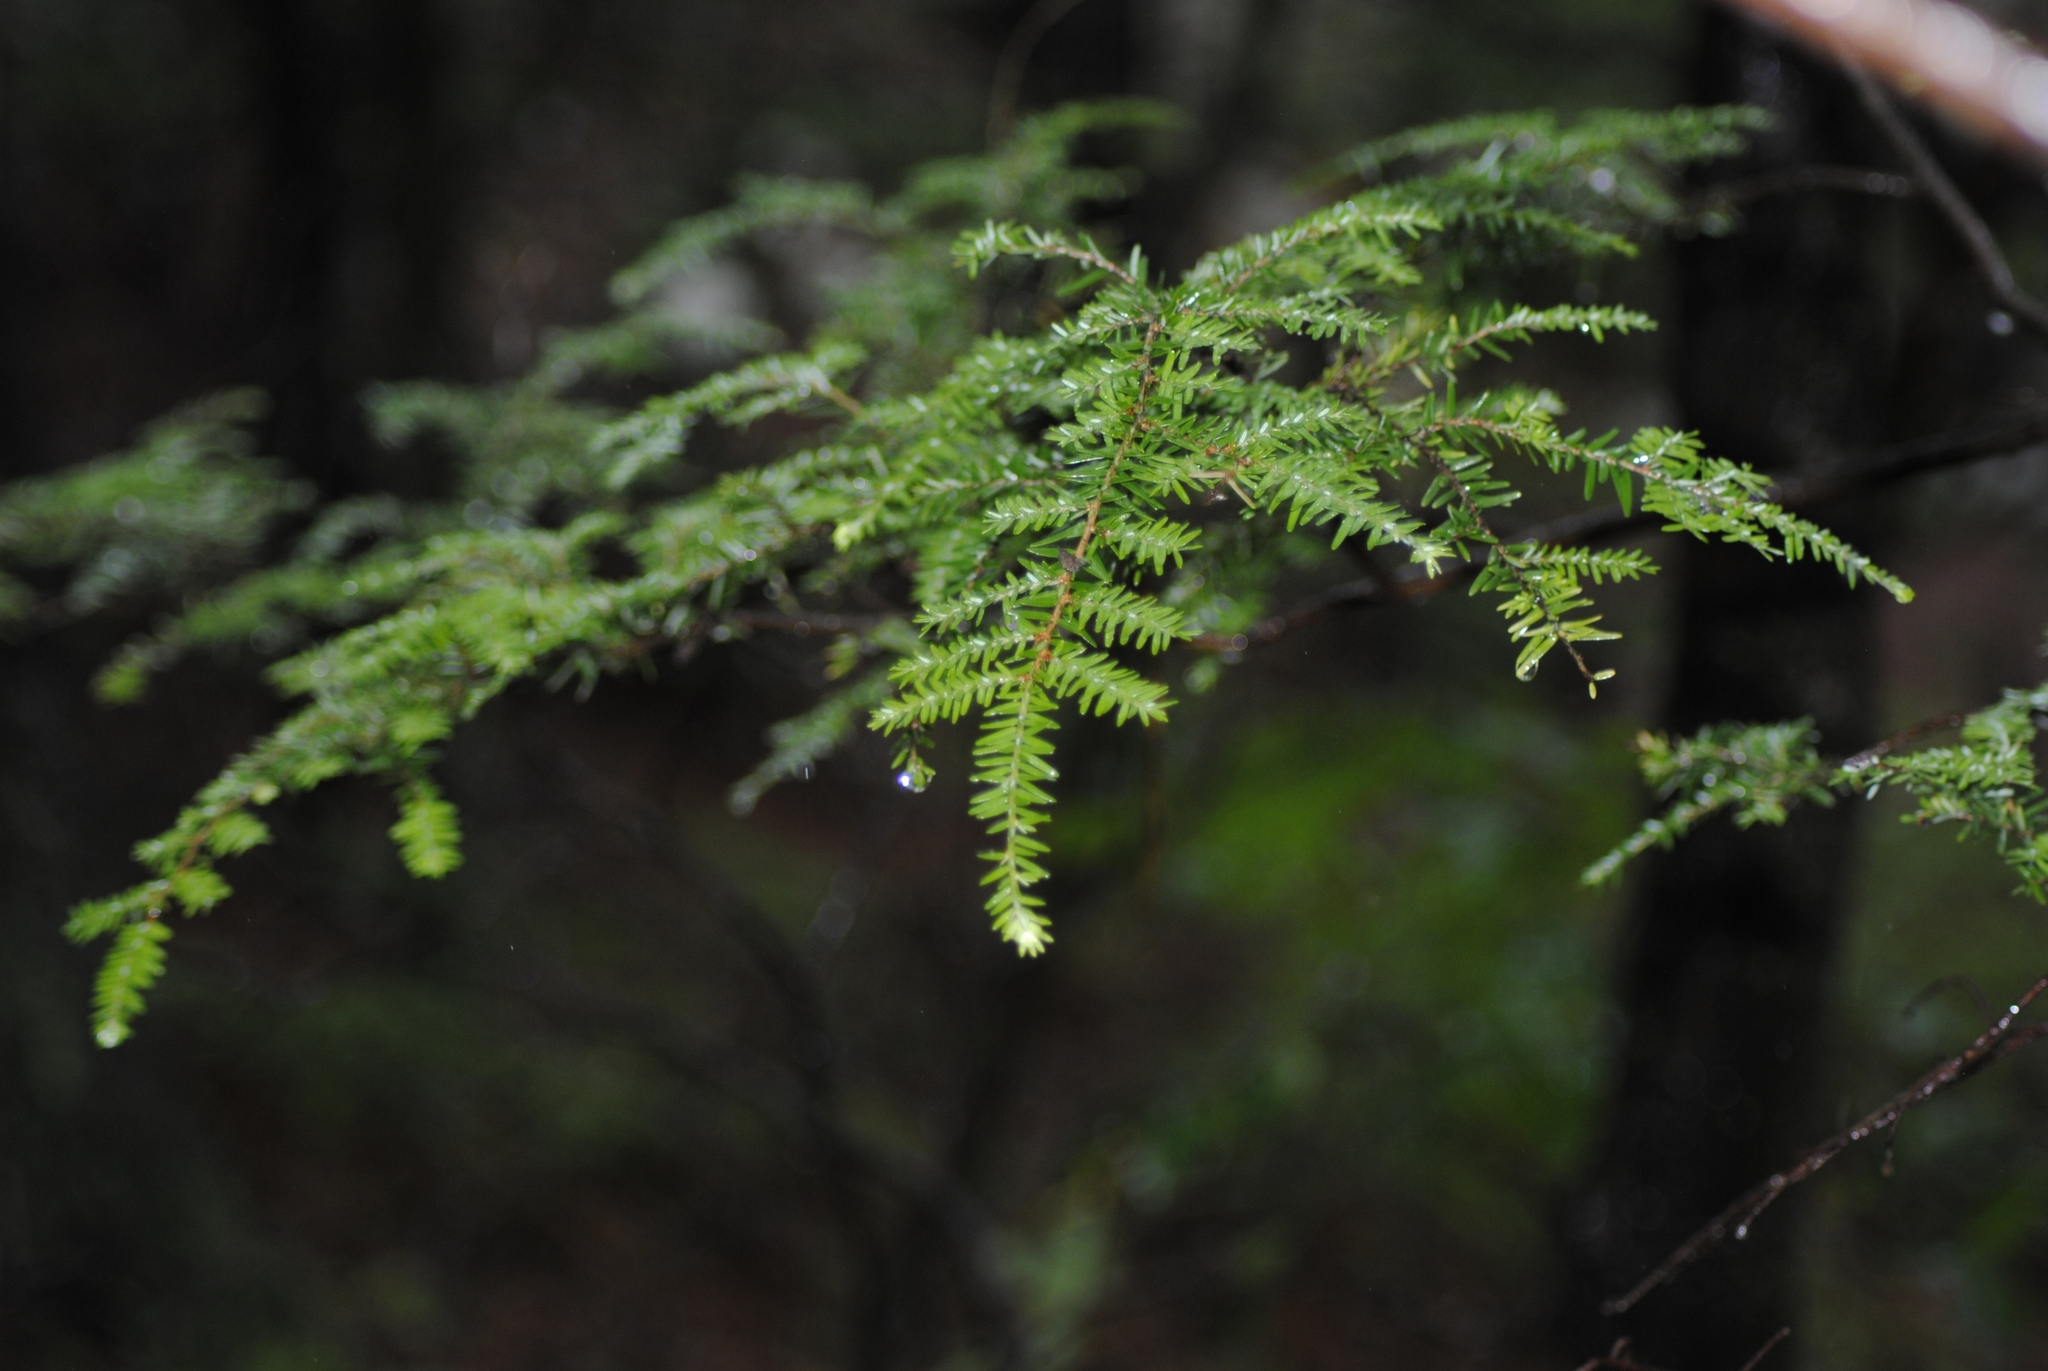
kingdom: Plantae
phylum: Tracheophyta
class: Pinopsida
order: Pinales
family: Pinaceae
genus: Tsuga
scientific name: Tsuga canadensis
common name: Eastern hemlock
